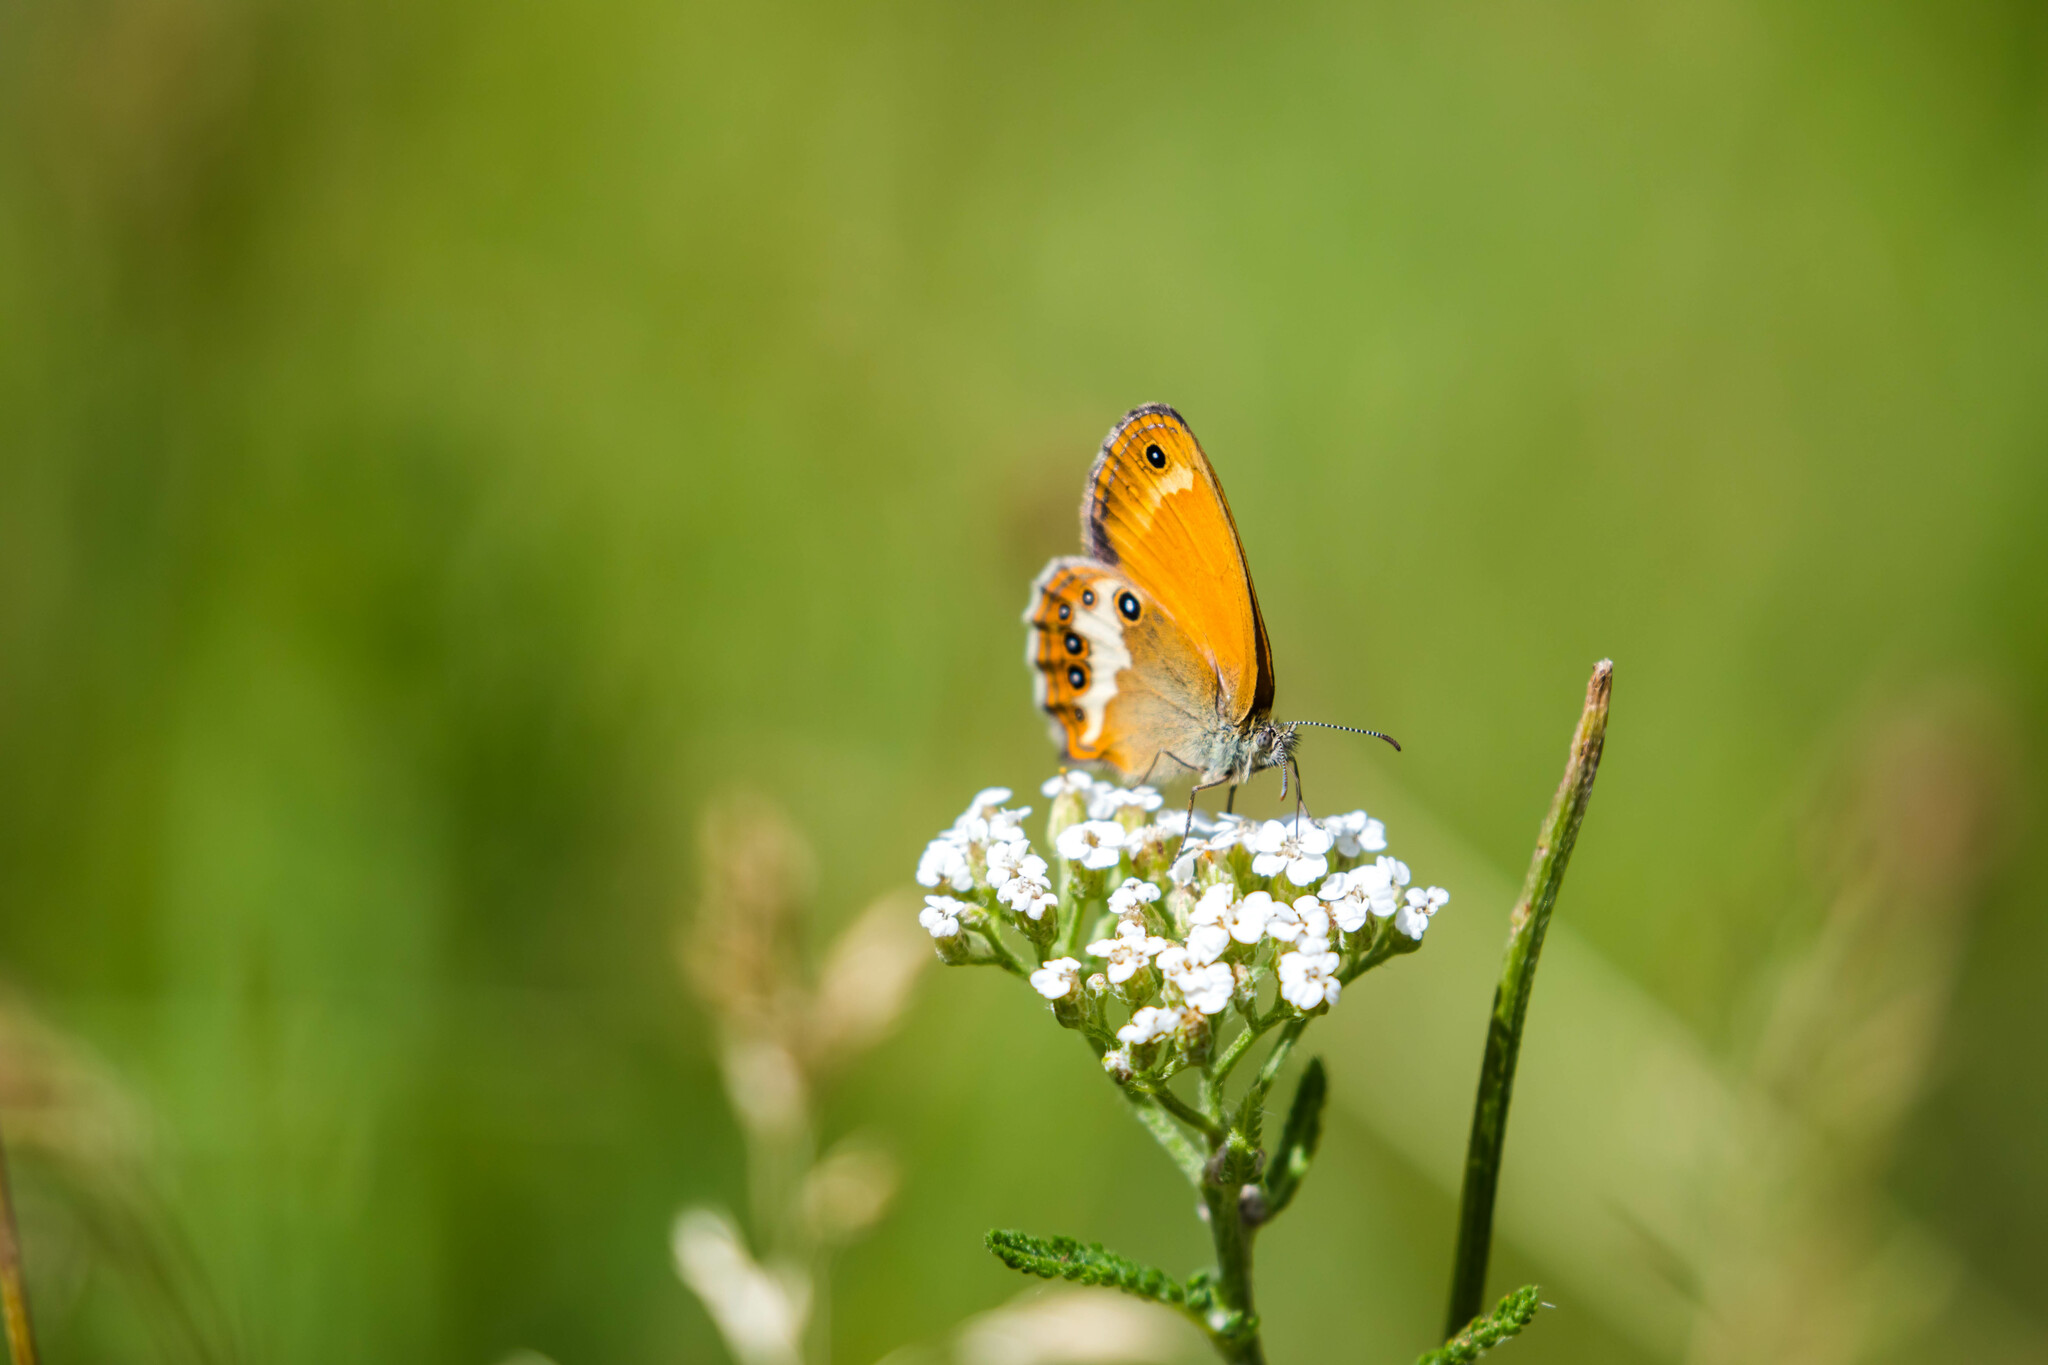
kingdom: Animalia
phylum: Arthropoda
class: Insecta
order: Lepidoptera
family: Nymphalidae
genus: Coenonympha
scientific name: Coenonympha arcania
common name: Pearly heath
